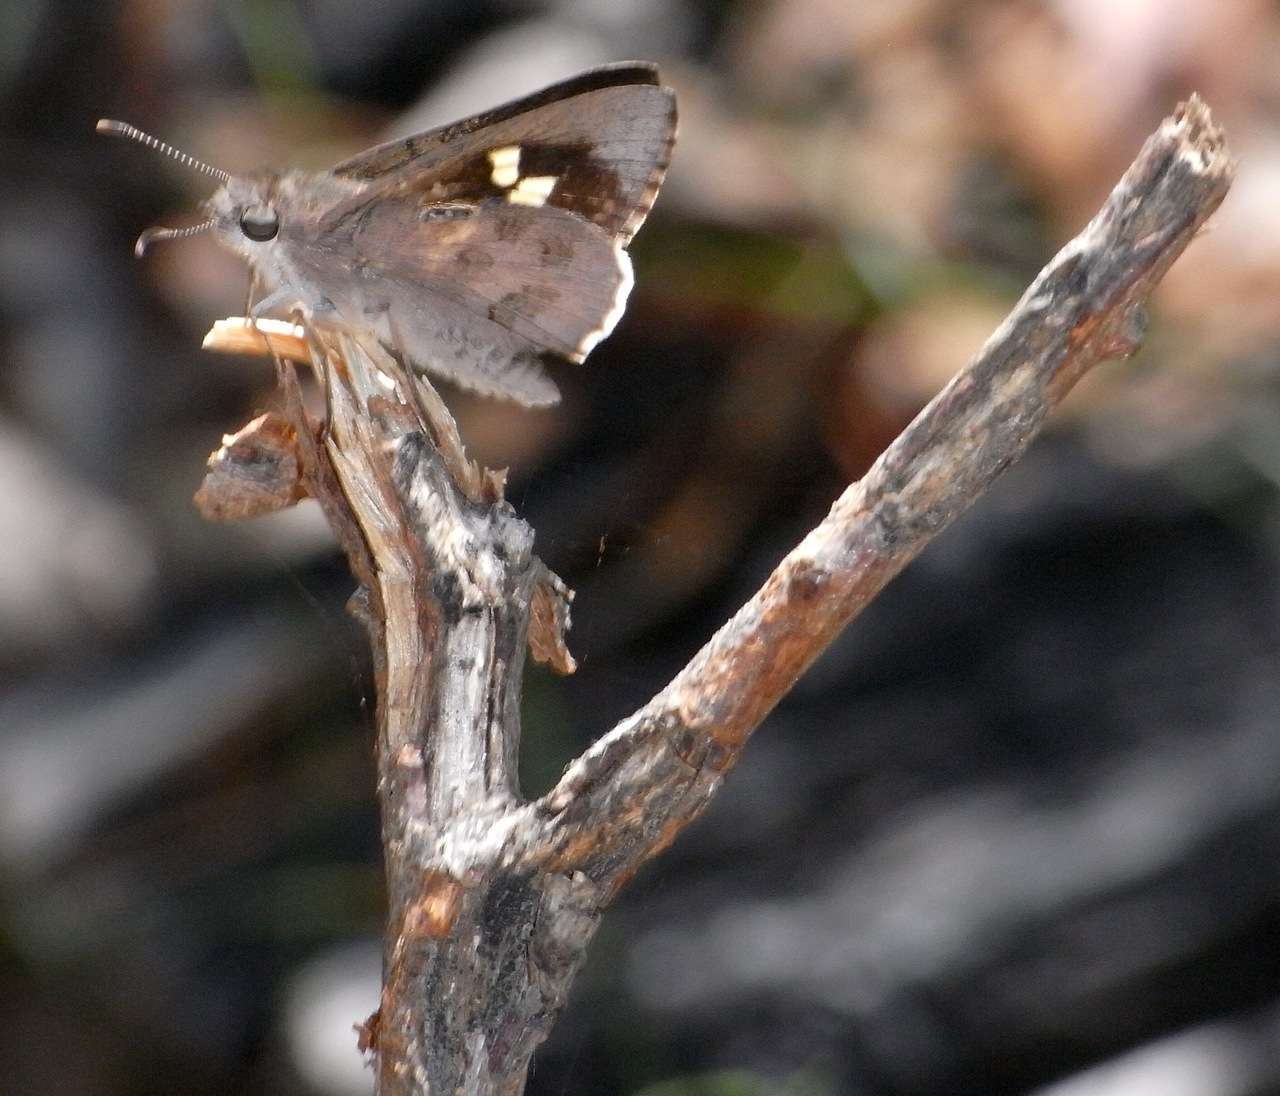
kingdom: Animalia
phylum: Arthropoda
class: Insecta
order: Lepidoptera
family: Hesperiidae
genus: Mesodina
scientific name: Mesodina halyzia
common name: Eastern iris-skipper
